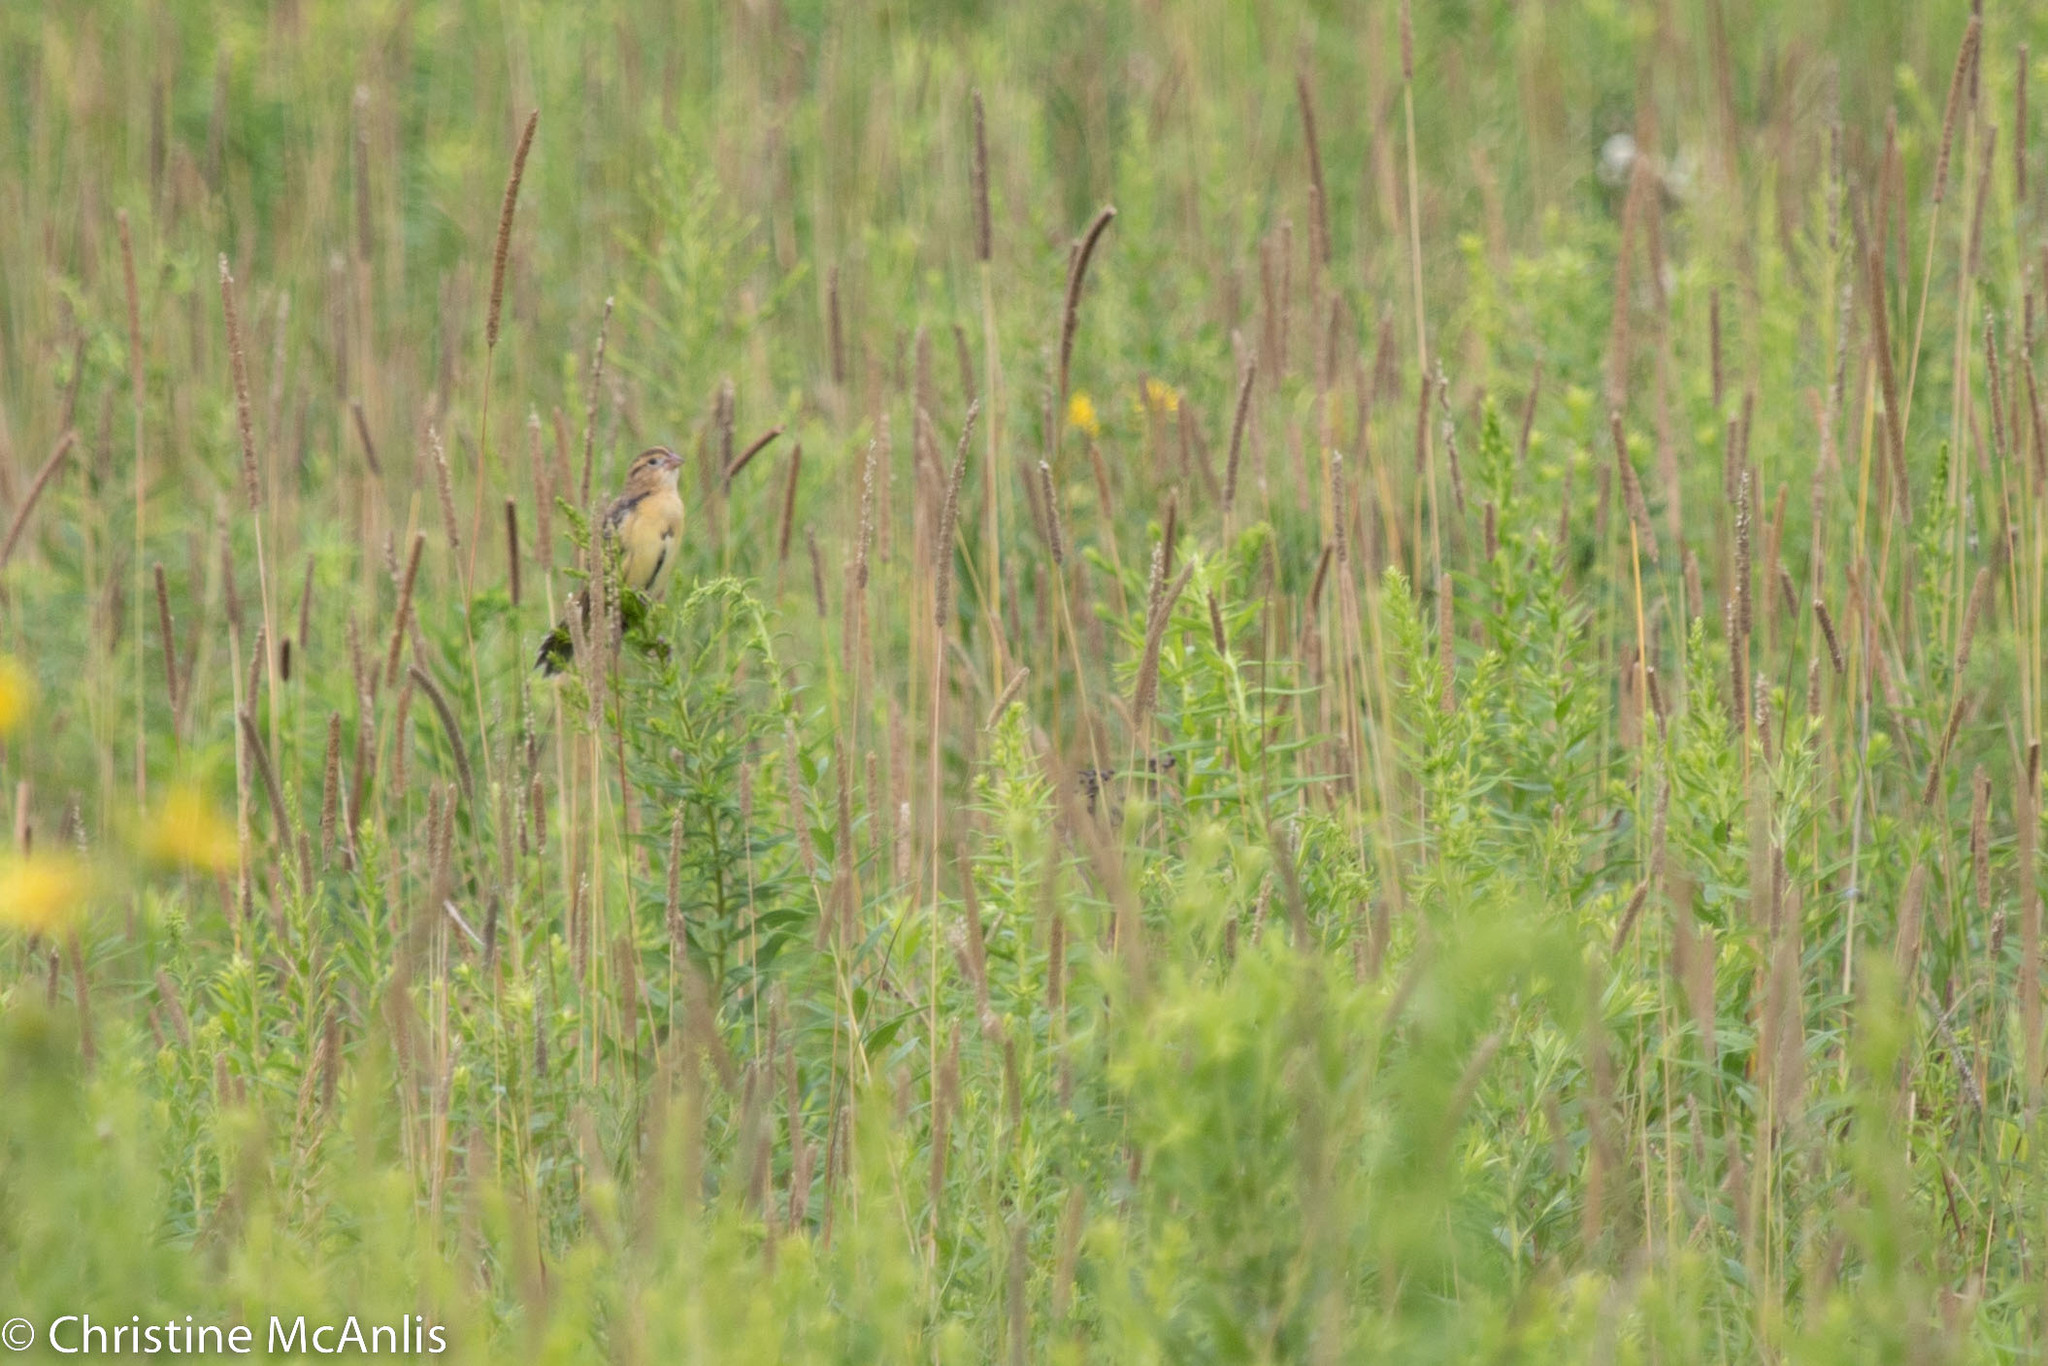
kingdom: Animalia
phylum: Chordata
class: Aves
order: Passeriformes
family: Icteridae
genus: Dolichonyx
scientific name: Dolichonyx oryzivorus
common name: Bobolink
